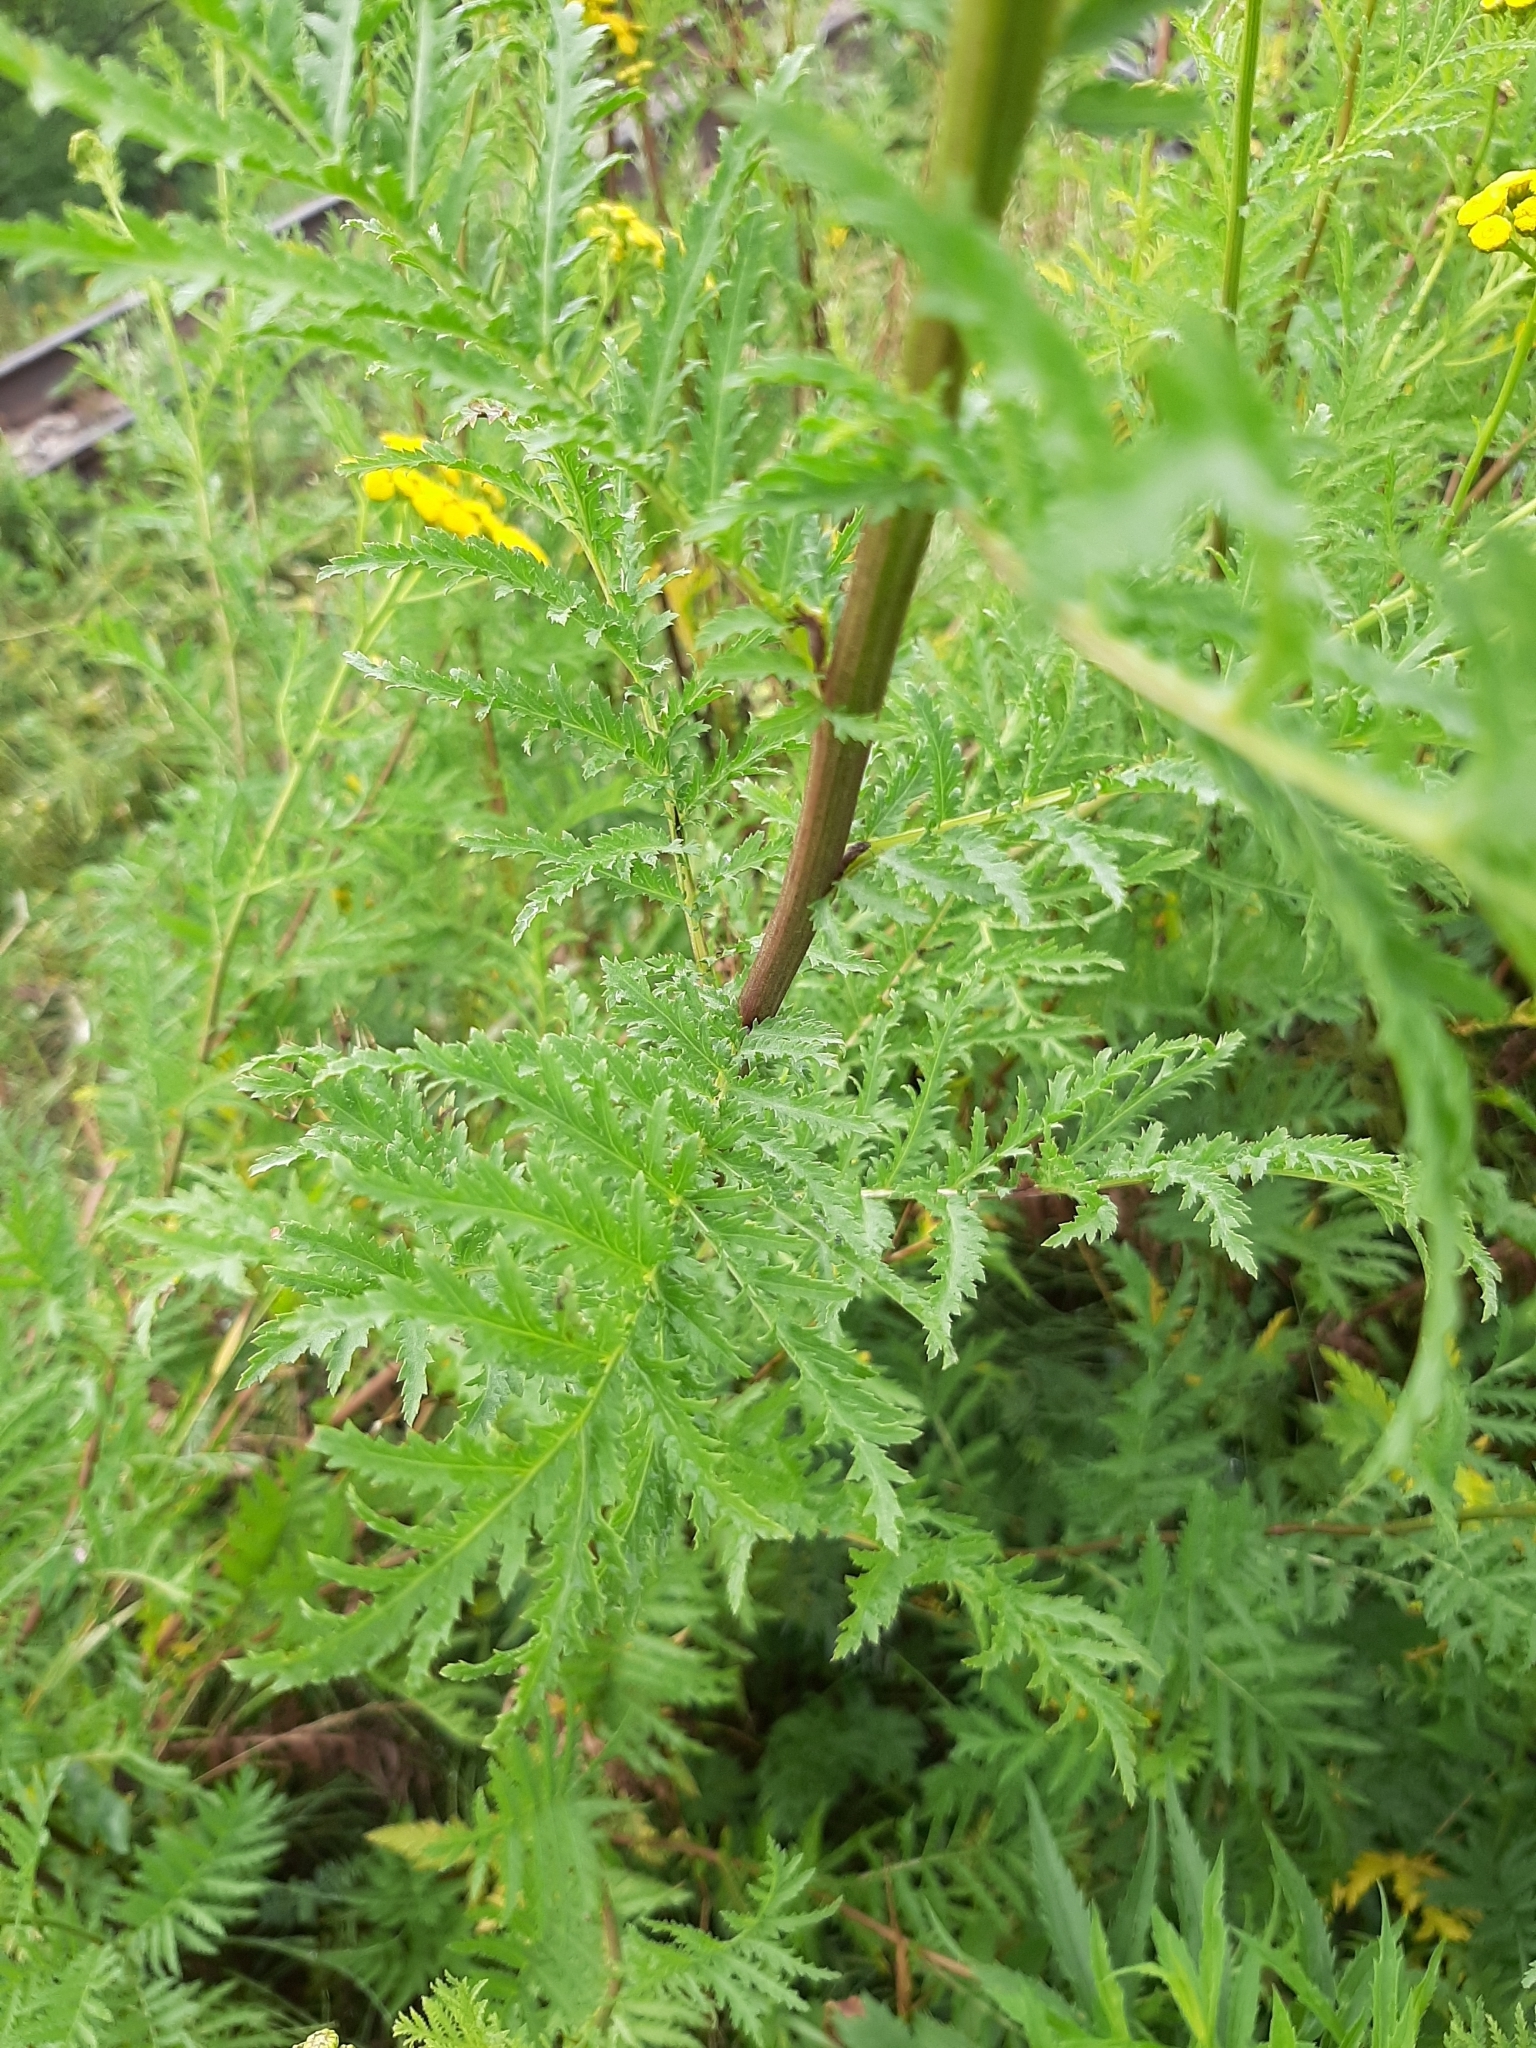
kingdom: Plantae
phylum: Tracheophyta
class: Magnoliopsida
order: Asterales
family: Asteraceae
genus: Tanacetum
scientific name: Tanacetum vulgare
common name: Common tansy
